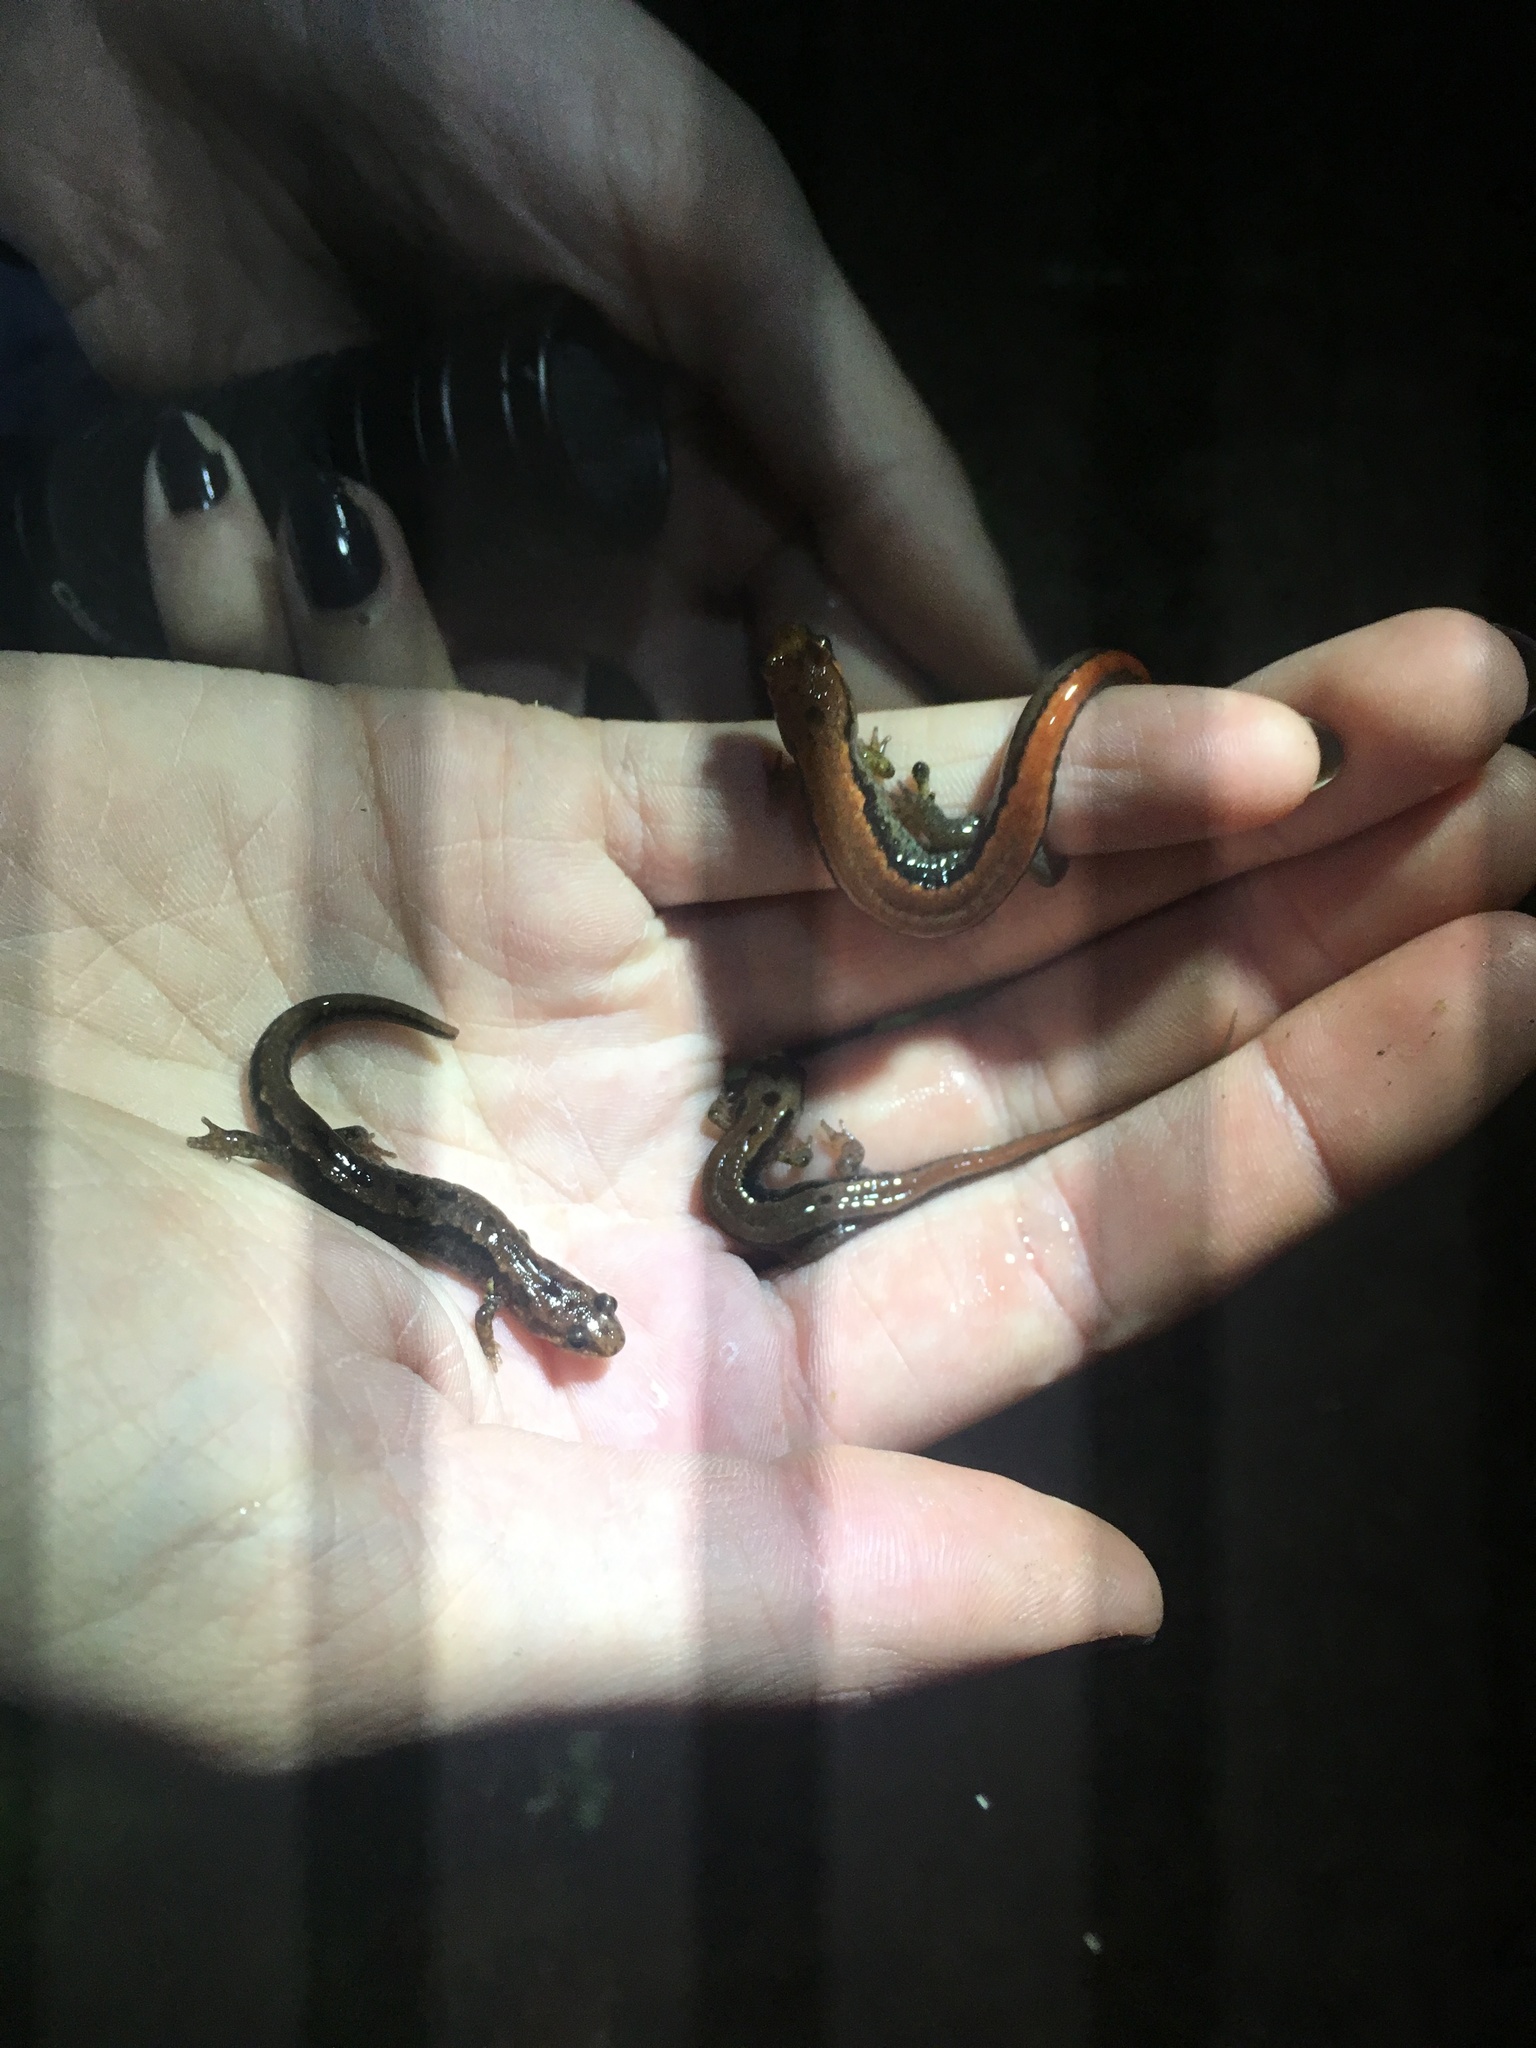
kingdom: Animalia
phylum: Chordata
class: Amphibia
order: Caudata
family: Plethodontidae
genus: Desmognathus
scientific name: Desmognathus carolinensis
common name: Carolina mountain dusky salamander
